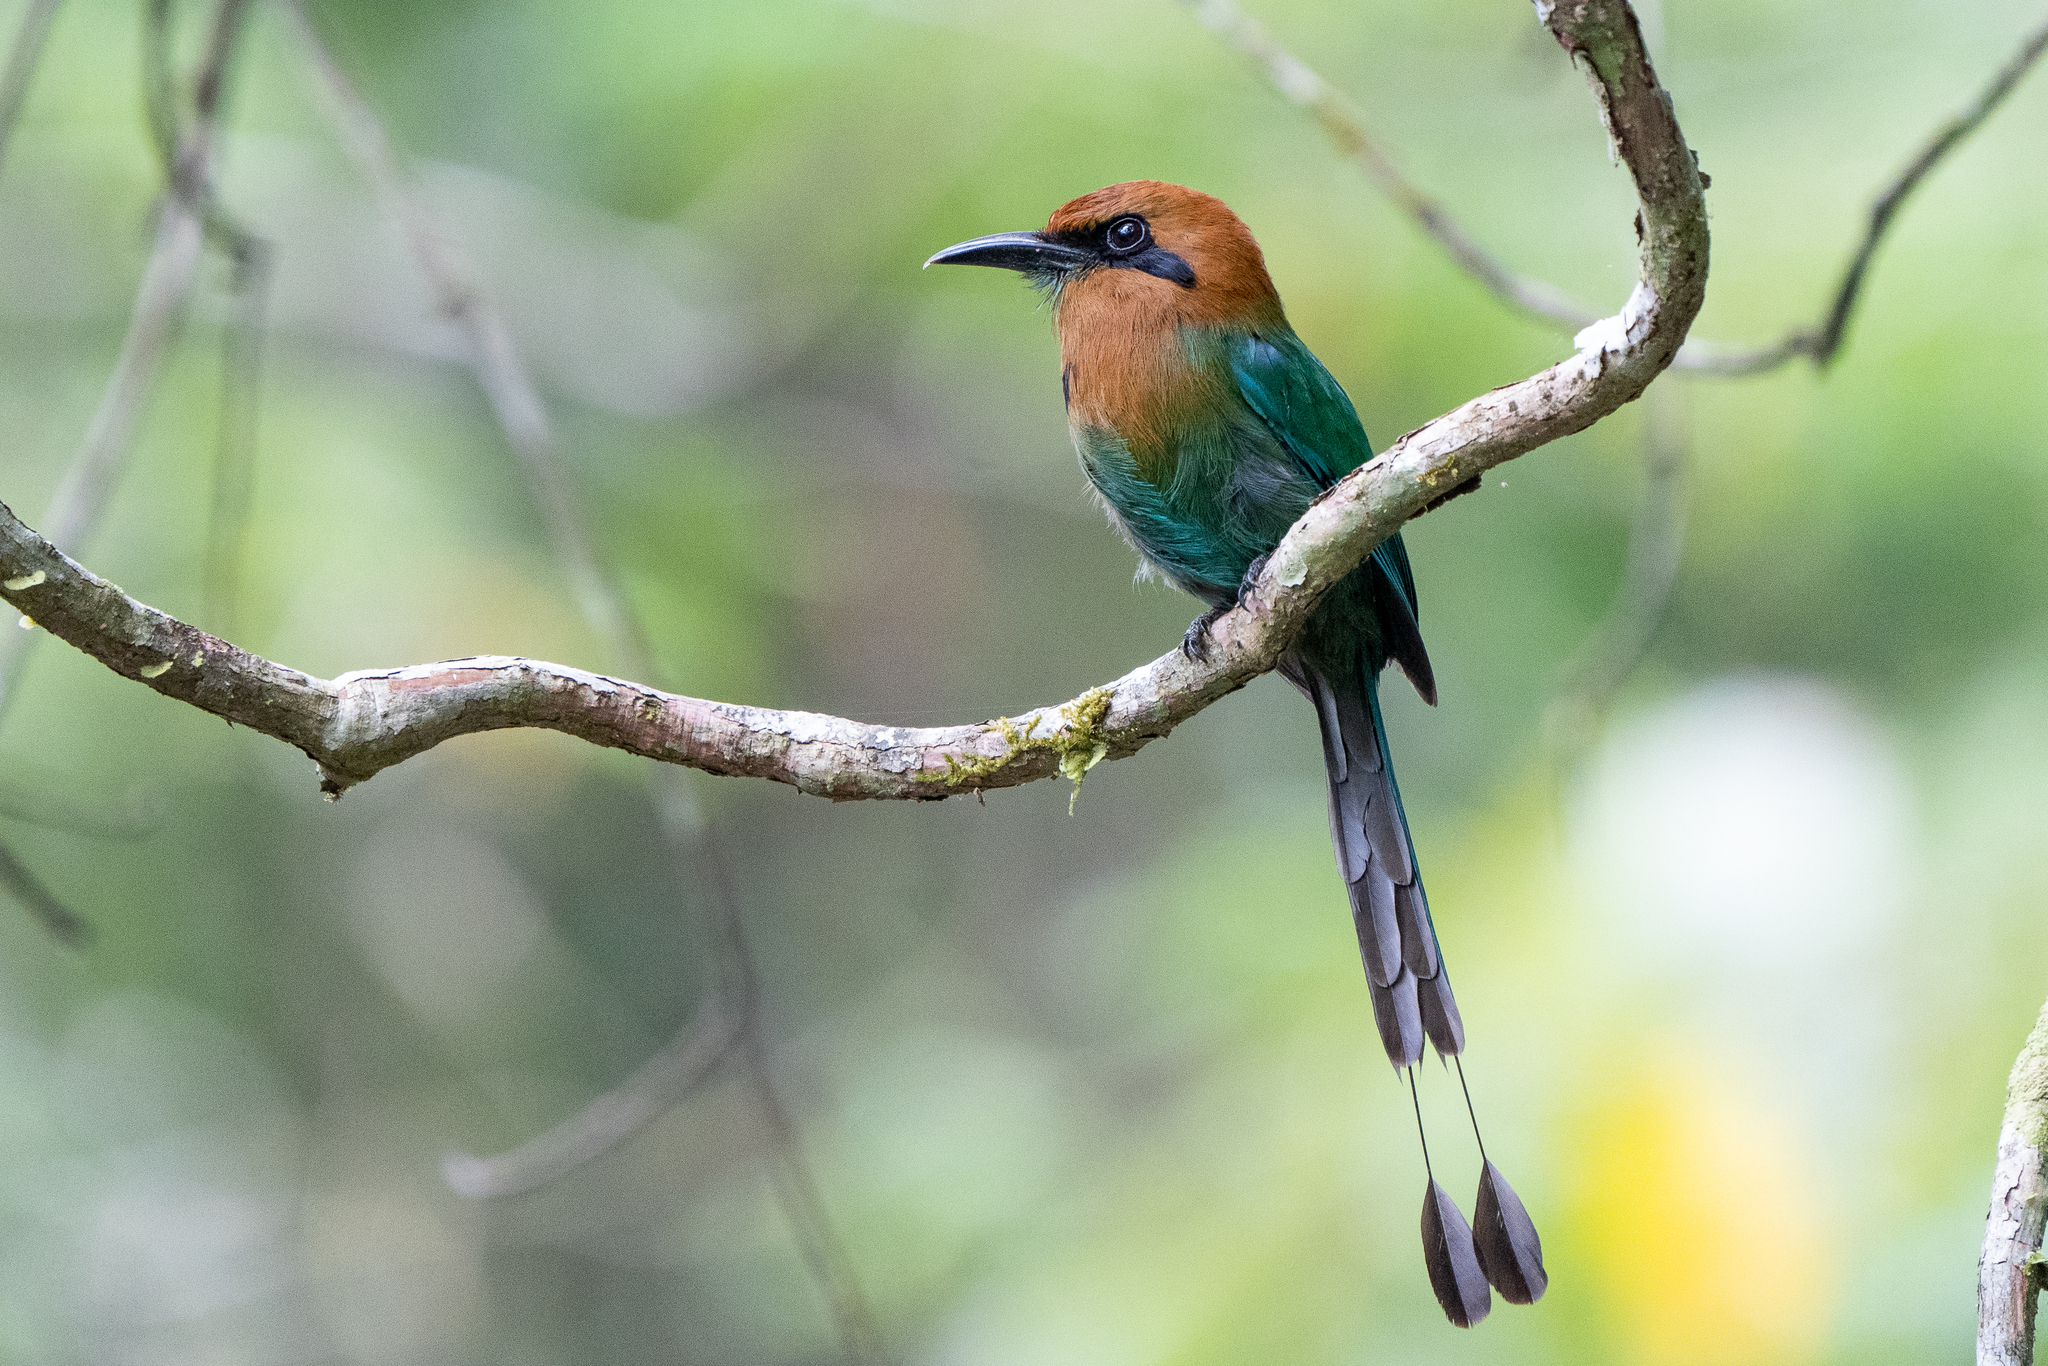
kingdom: Animalia
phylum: Chordata
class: Aves
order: Coraciiformes
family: Momotidae
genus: Electron
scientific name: Electron platyrhynchum
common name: Broad-billed motmot
